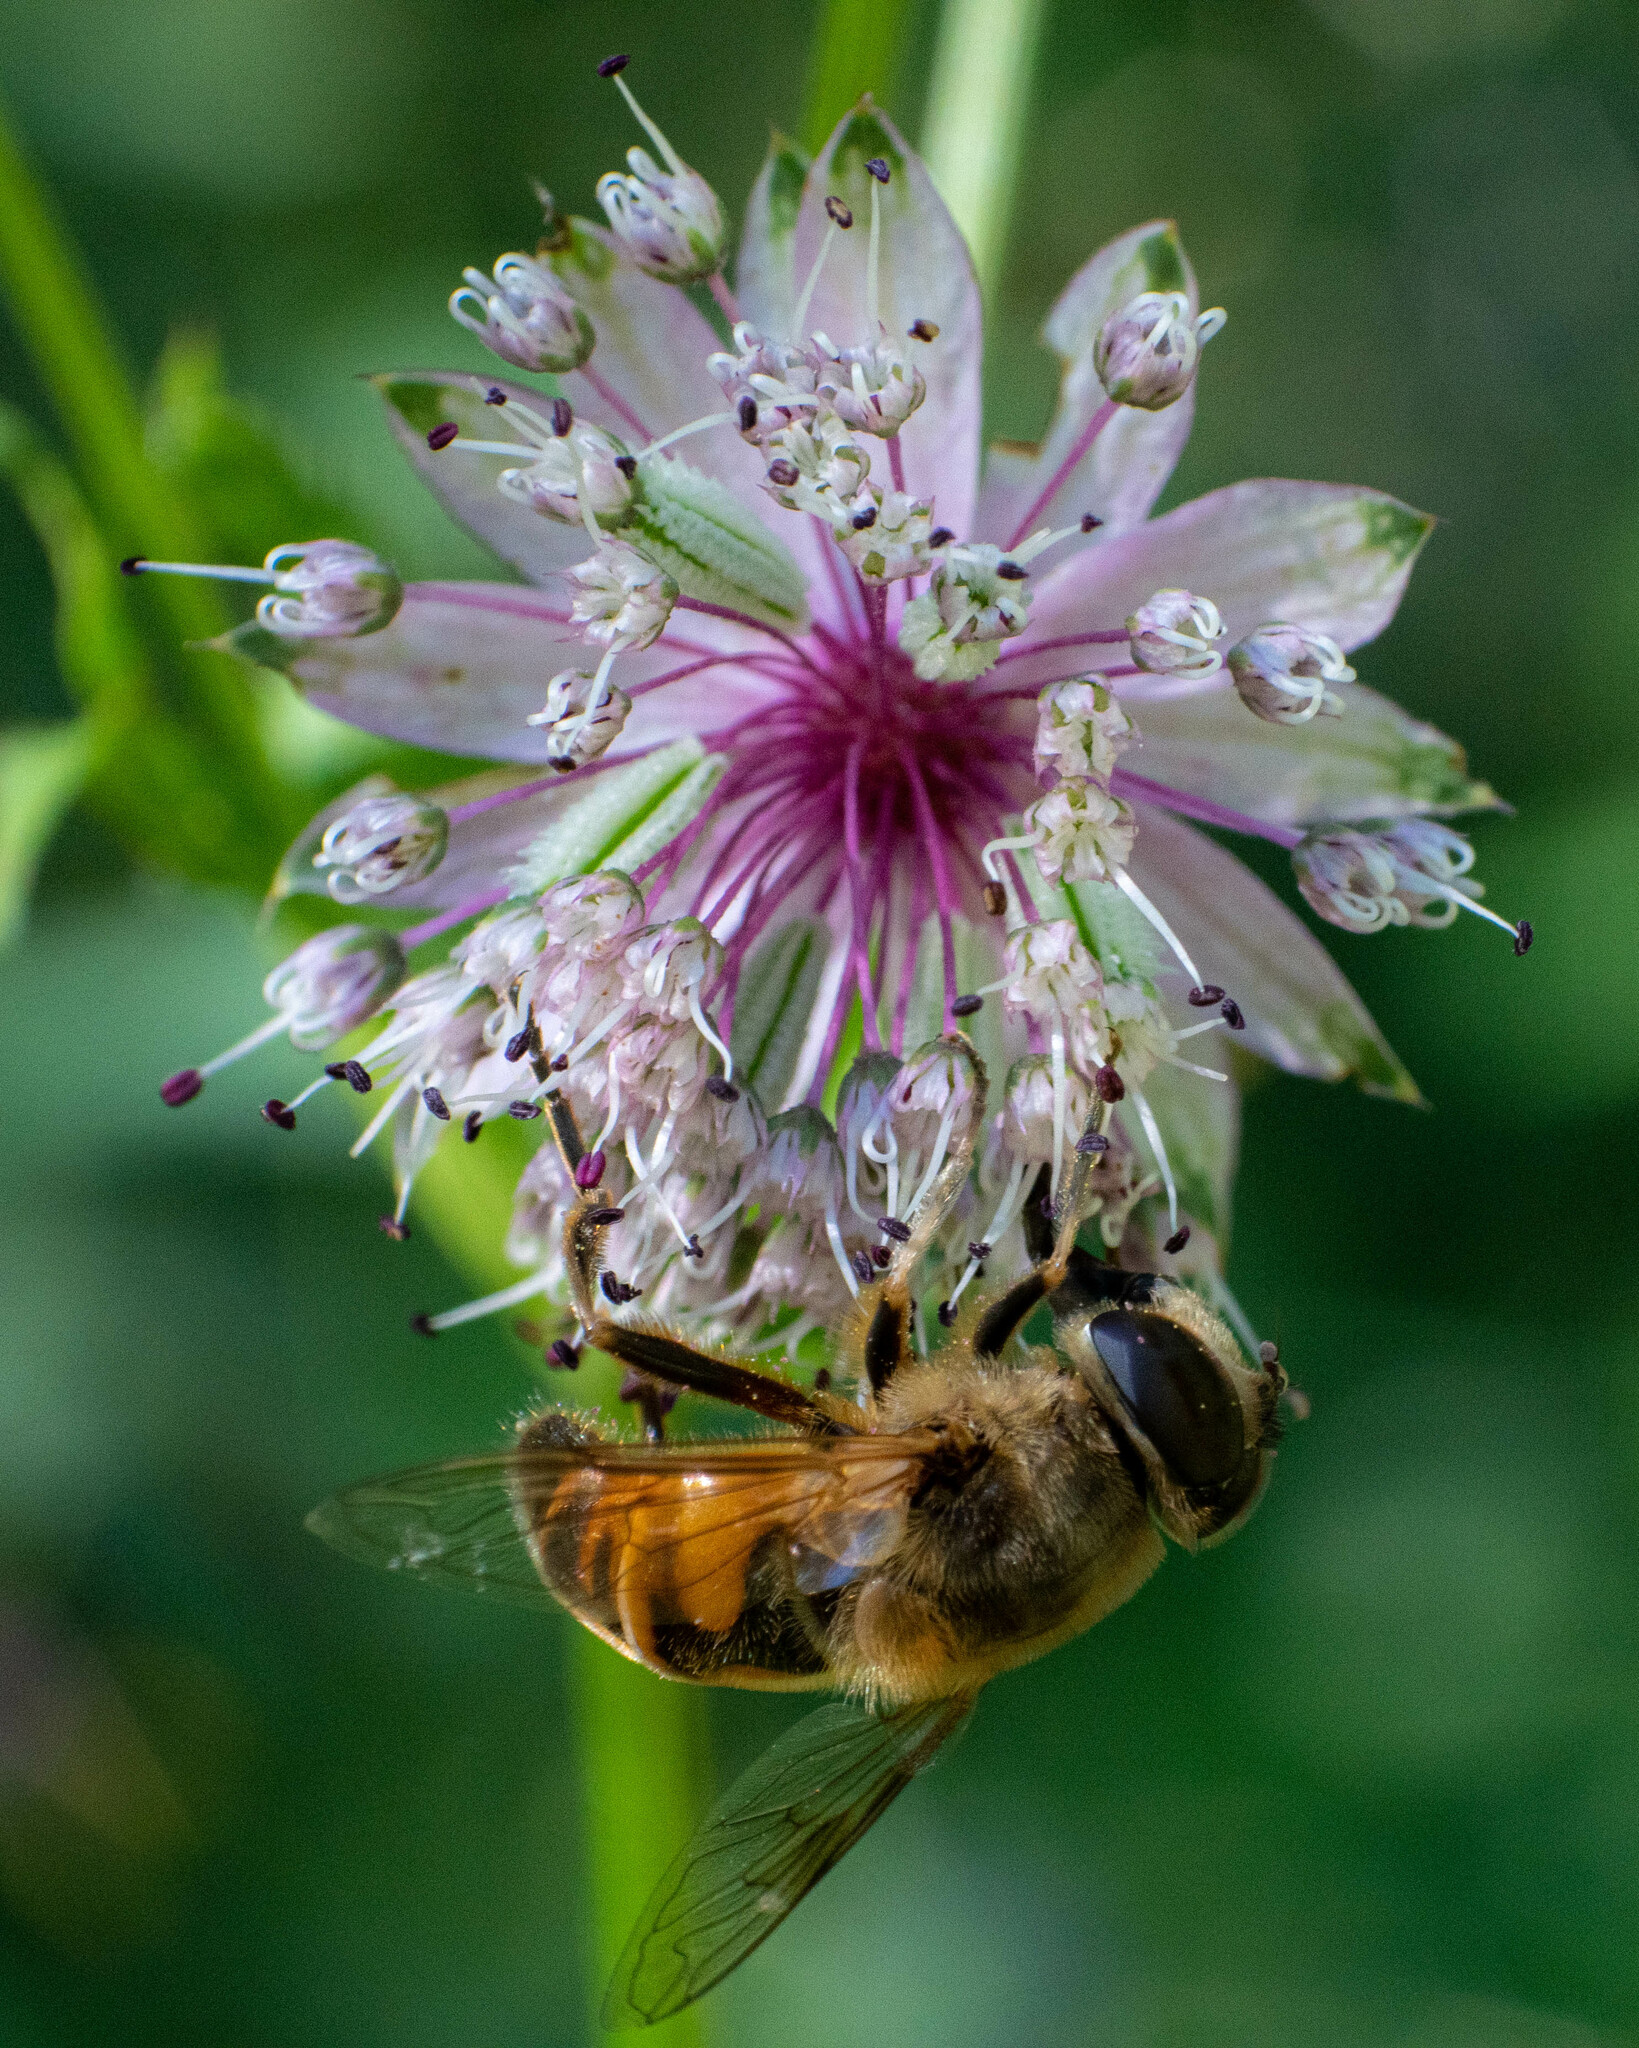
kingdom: Animalia
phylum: Arthropoda
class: Insecta
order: Diptera
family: Syrphidae
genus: Eristalis
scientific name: Eristalis tenax
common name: Drone fly
